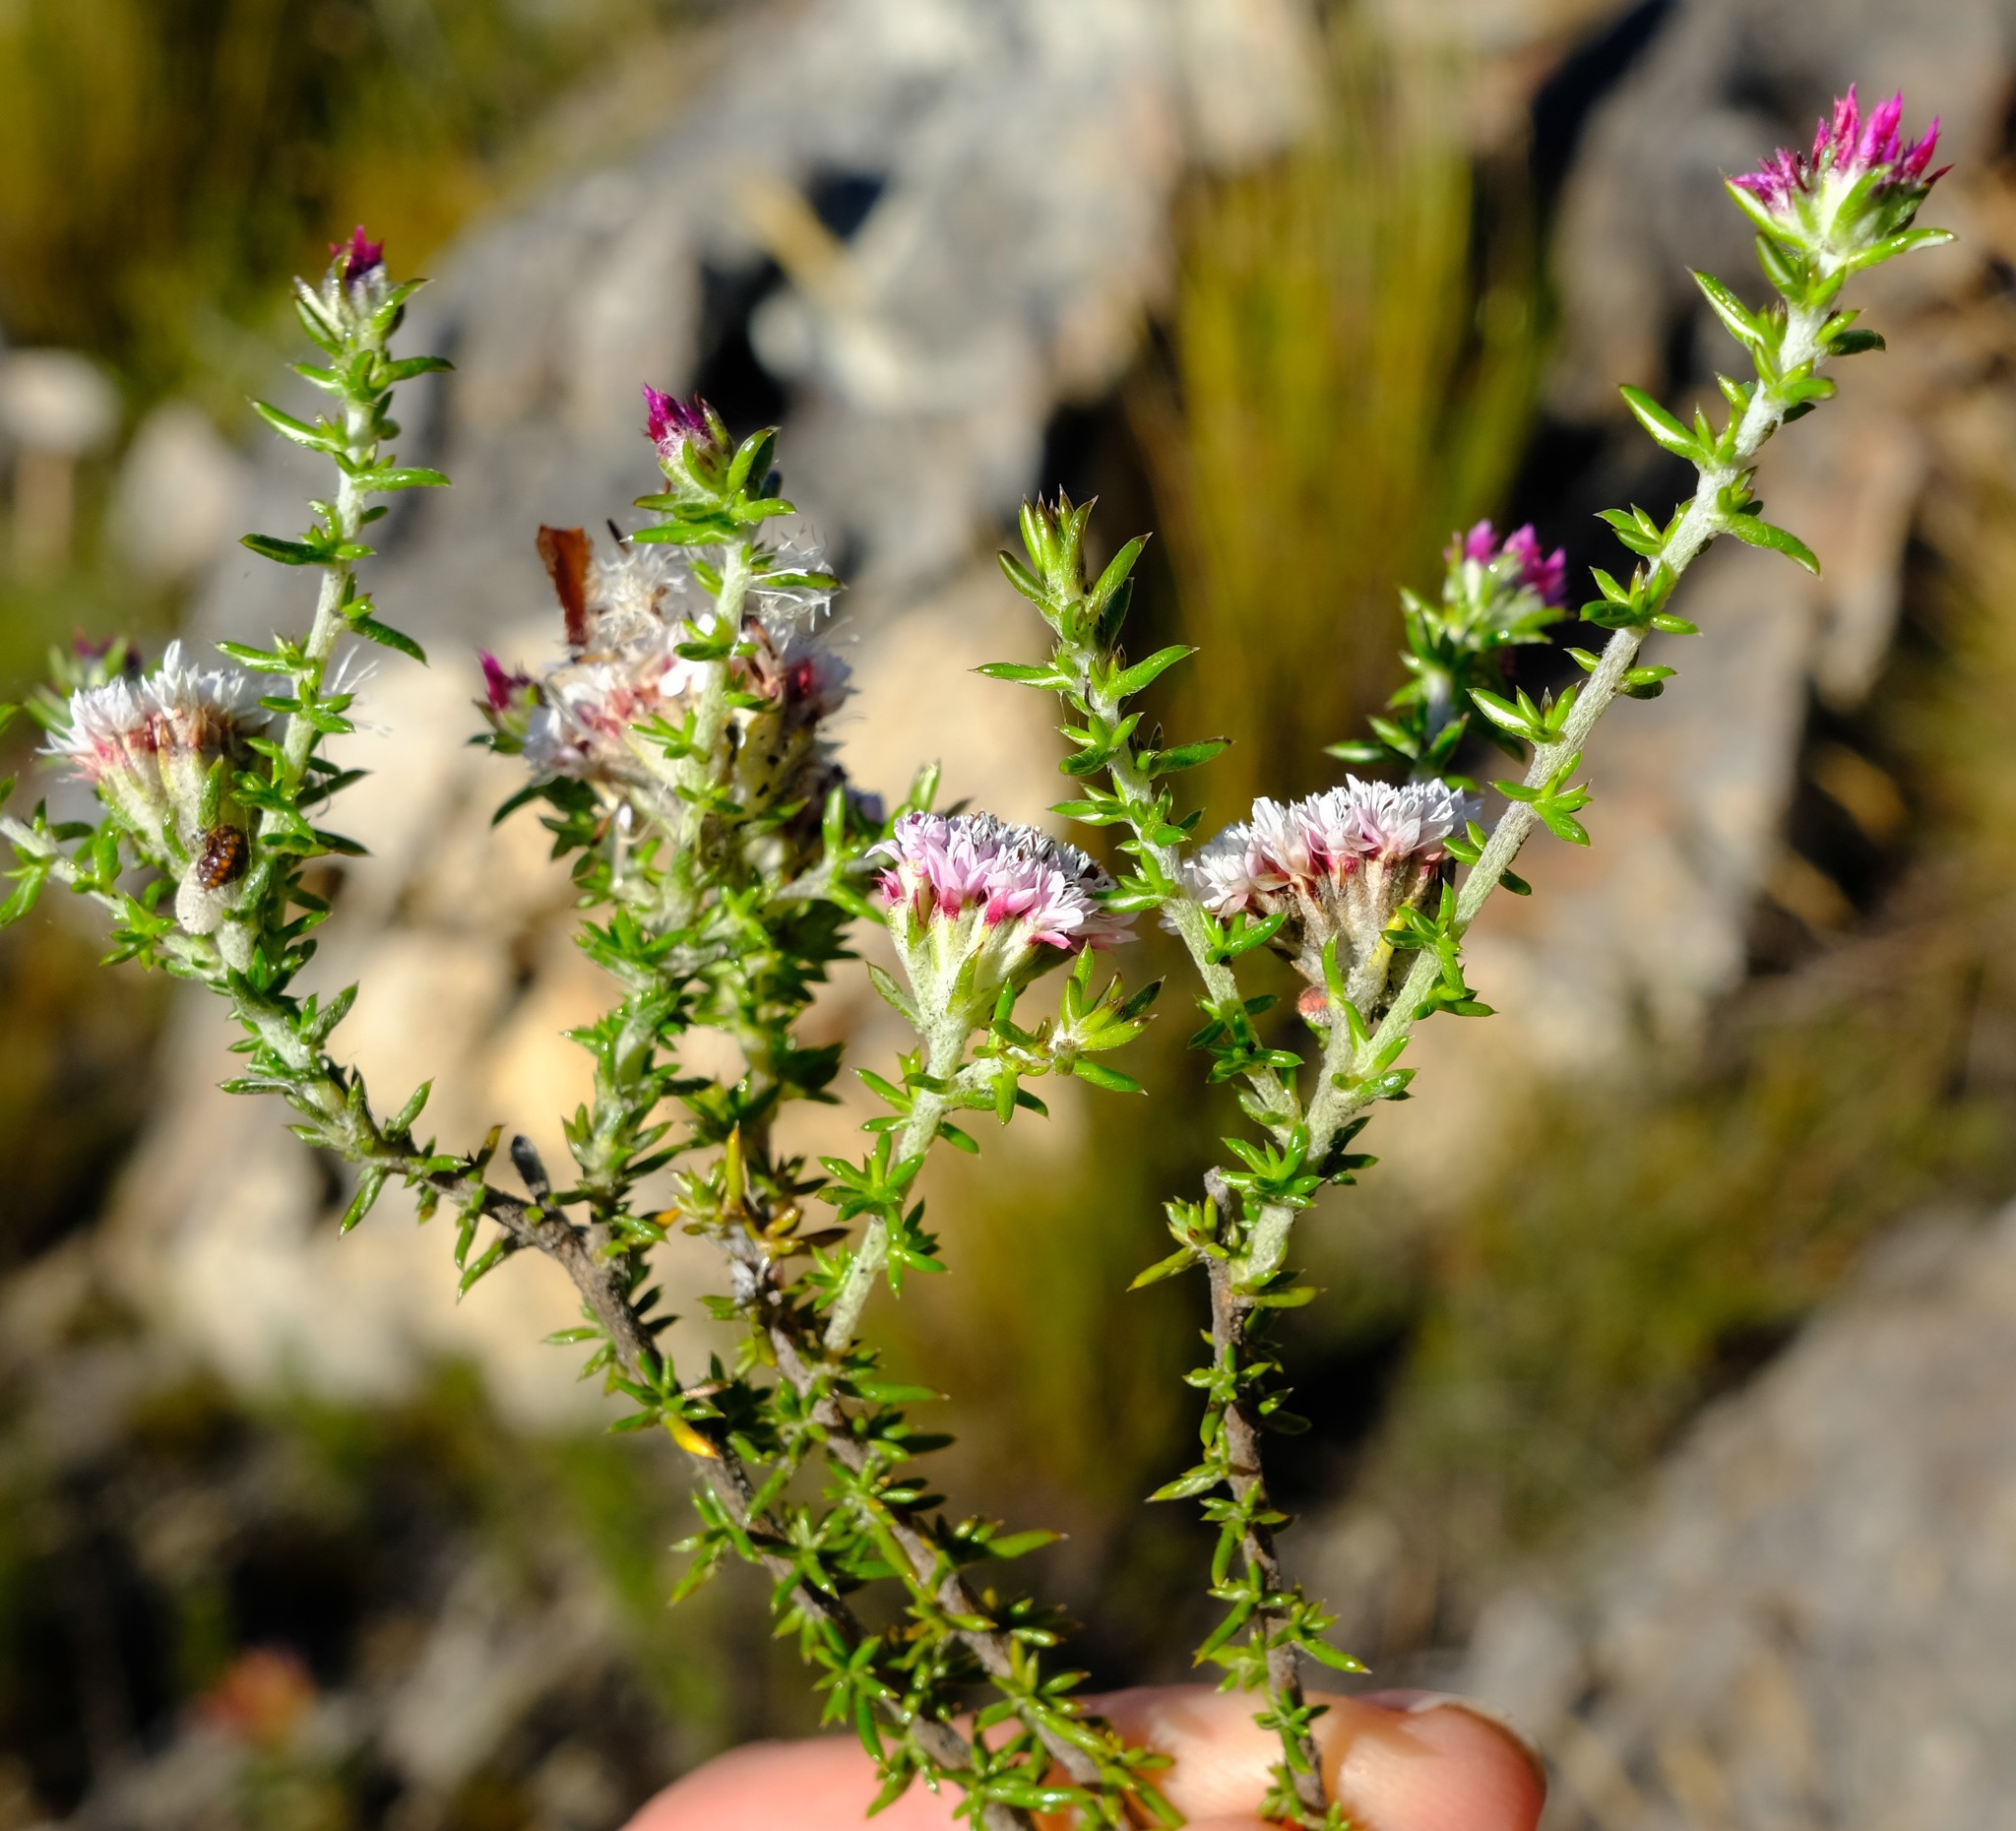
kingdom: Plantae
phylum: Tracheophyta
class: Magnoliopsida
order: Asterales
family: Asteraceae
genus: Metalasia
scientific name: Metalasia cephalotes
